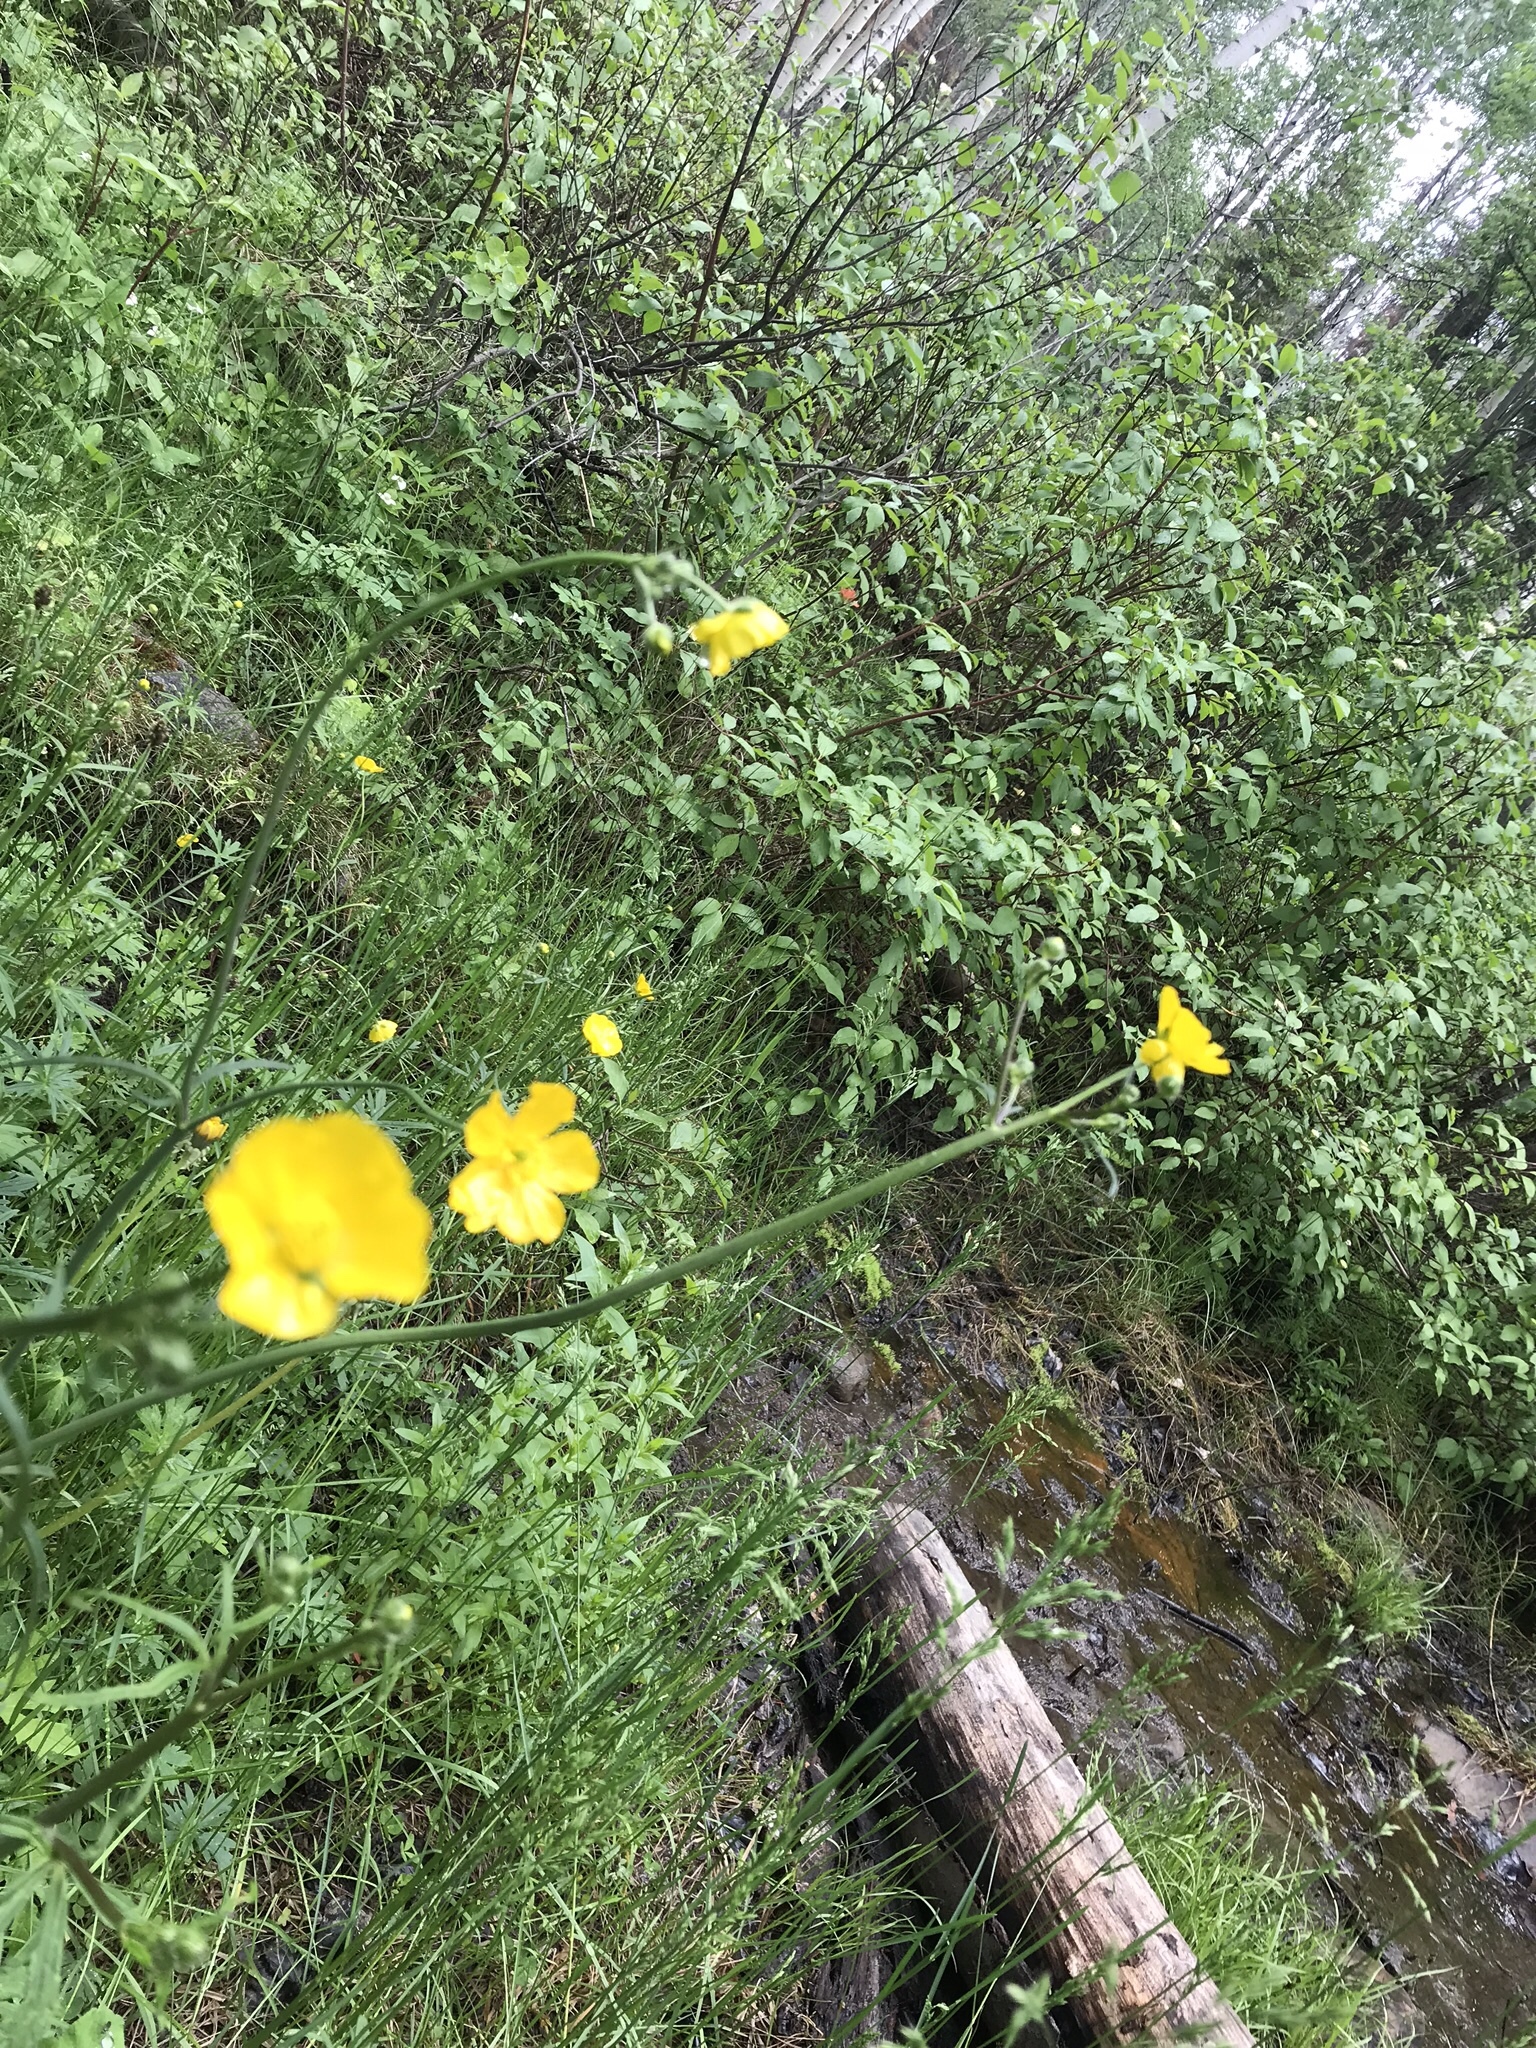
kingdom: Plantae
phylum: Tracheophyta
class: Magnoliopsida
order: Ranunculales
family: Ranunculaceae
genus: Ranunculus
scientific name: Ranunculus acris
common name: Meadow buttercup
